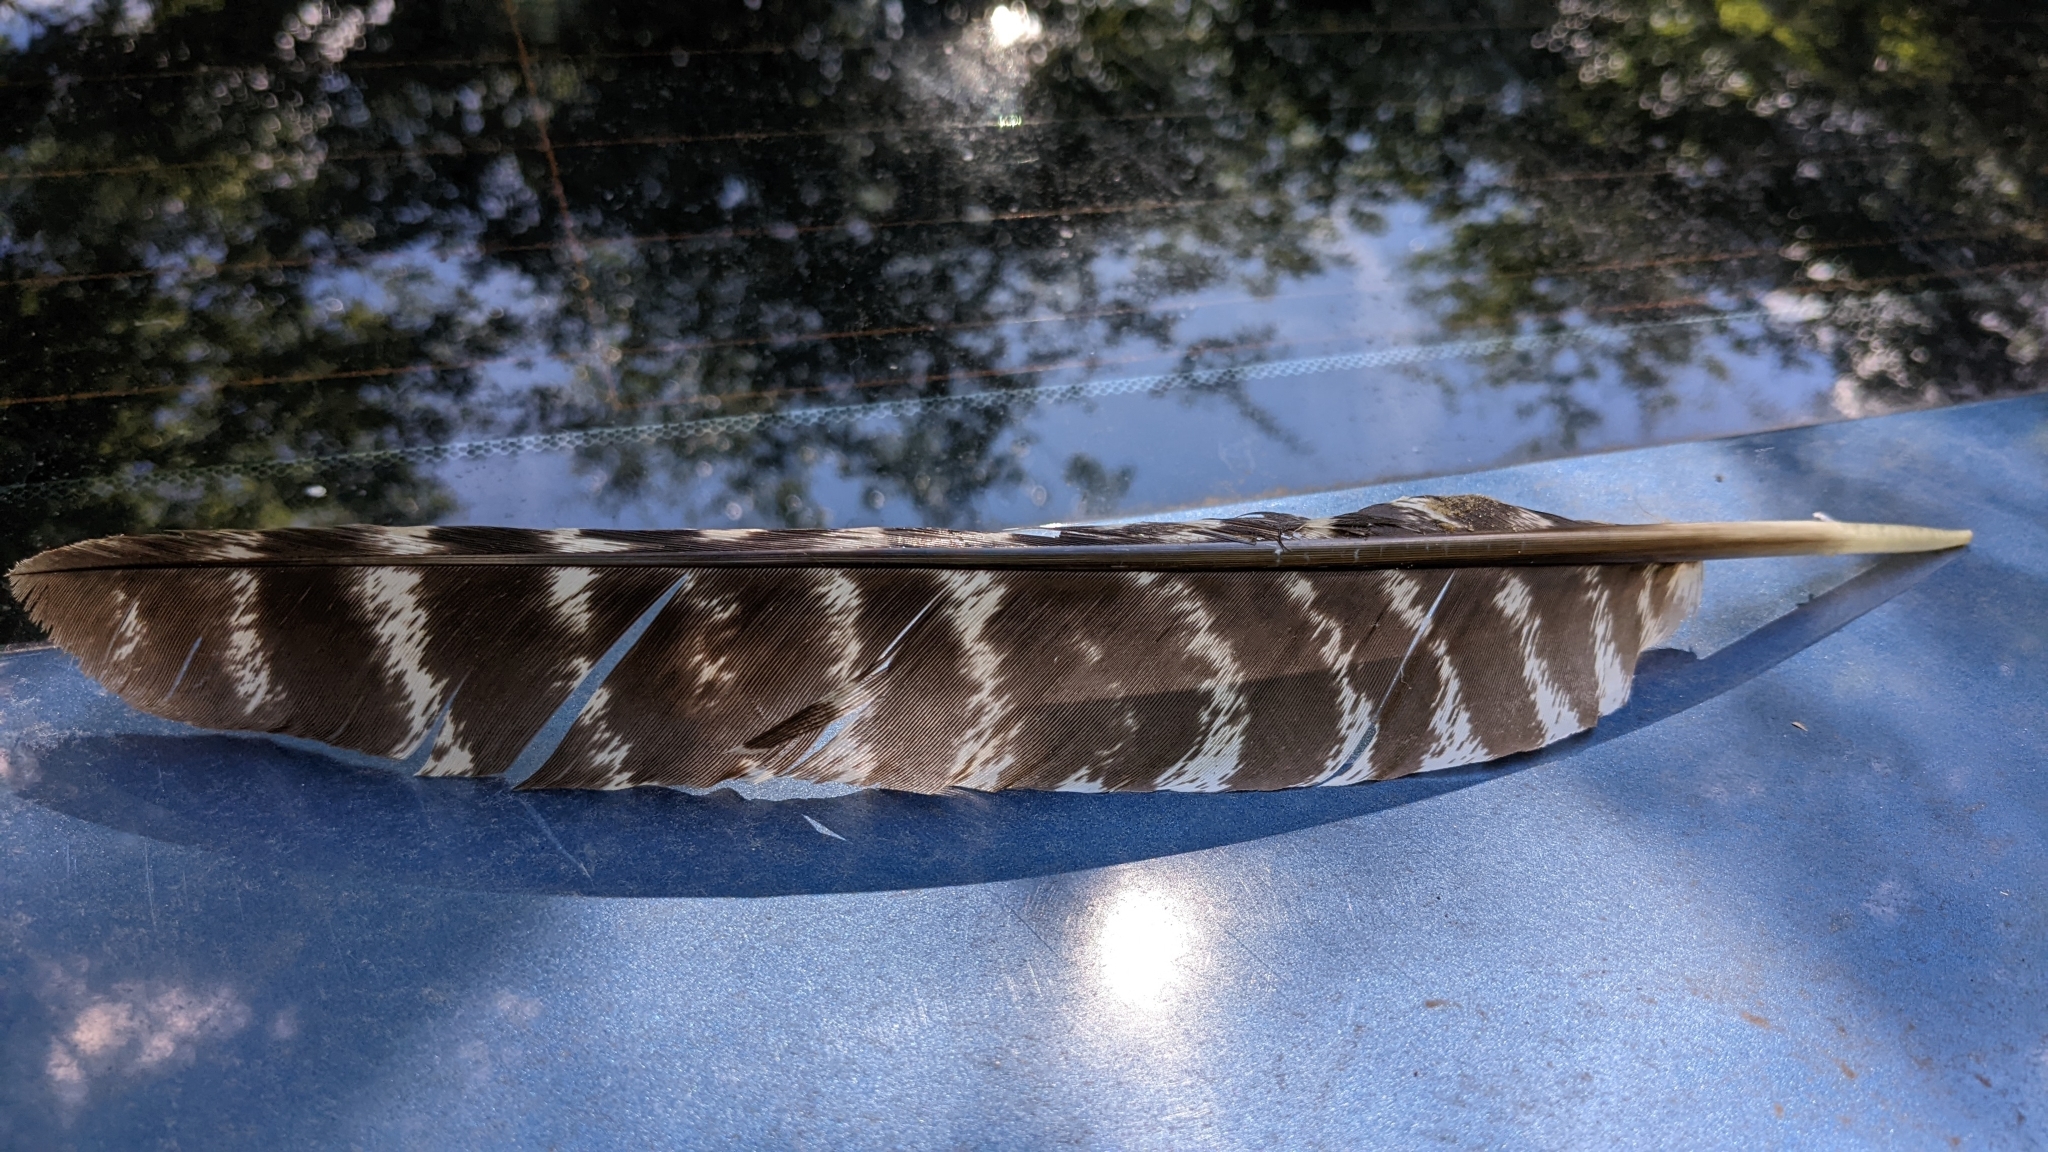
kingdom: Animalia
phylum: Chordata
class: Aves
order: Galliformes
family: Phasianidae
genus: Meleagris
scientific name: Meleagris gallopavo
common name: Wild turkey
